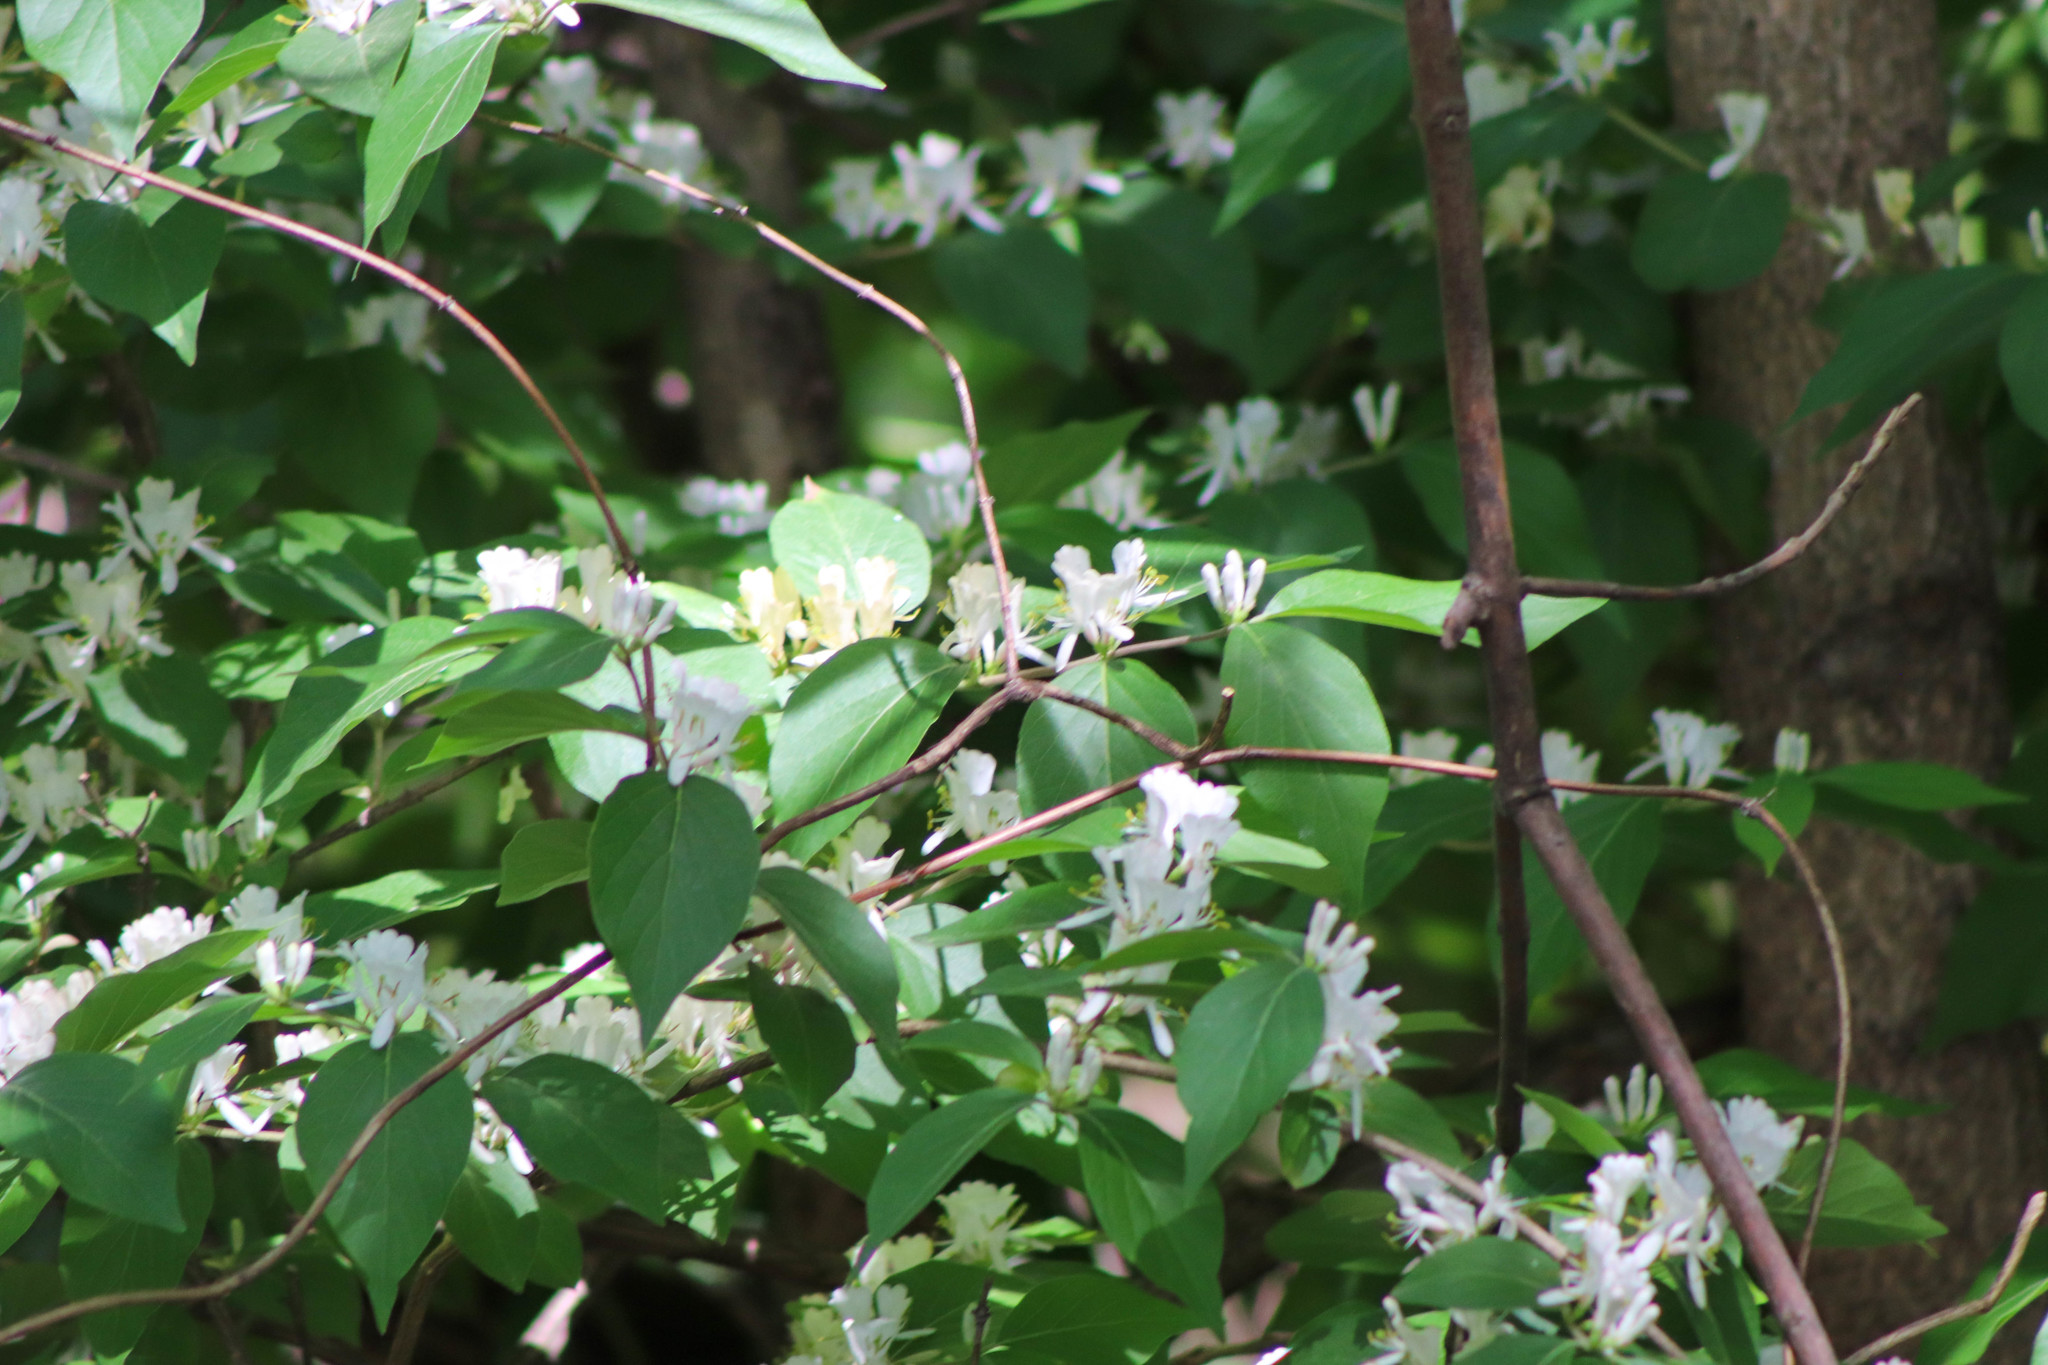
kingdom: Plantae
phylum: Tracheophyta
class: Magnoliopsida
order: Dipsacales
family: Caprifoliaceae
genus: Lonicera
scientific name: Lonicera maackii
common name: Amur honeysuckle
